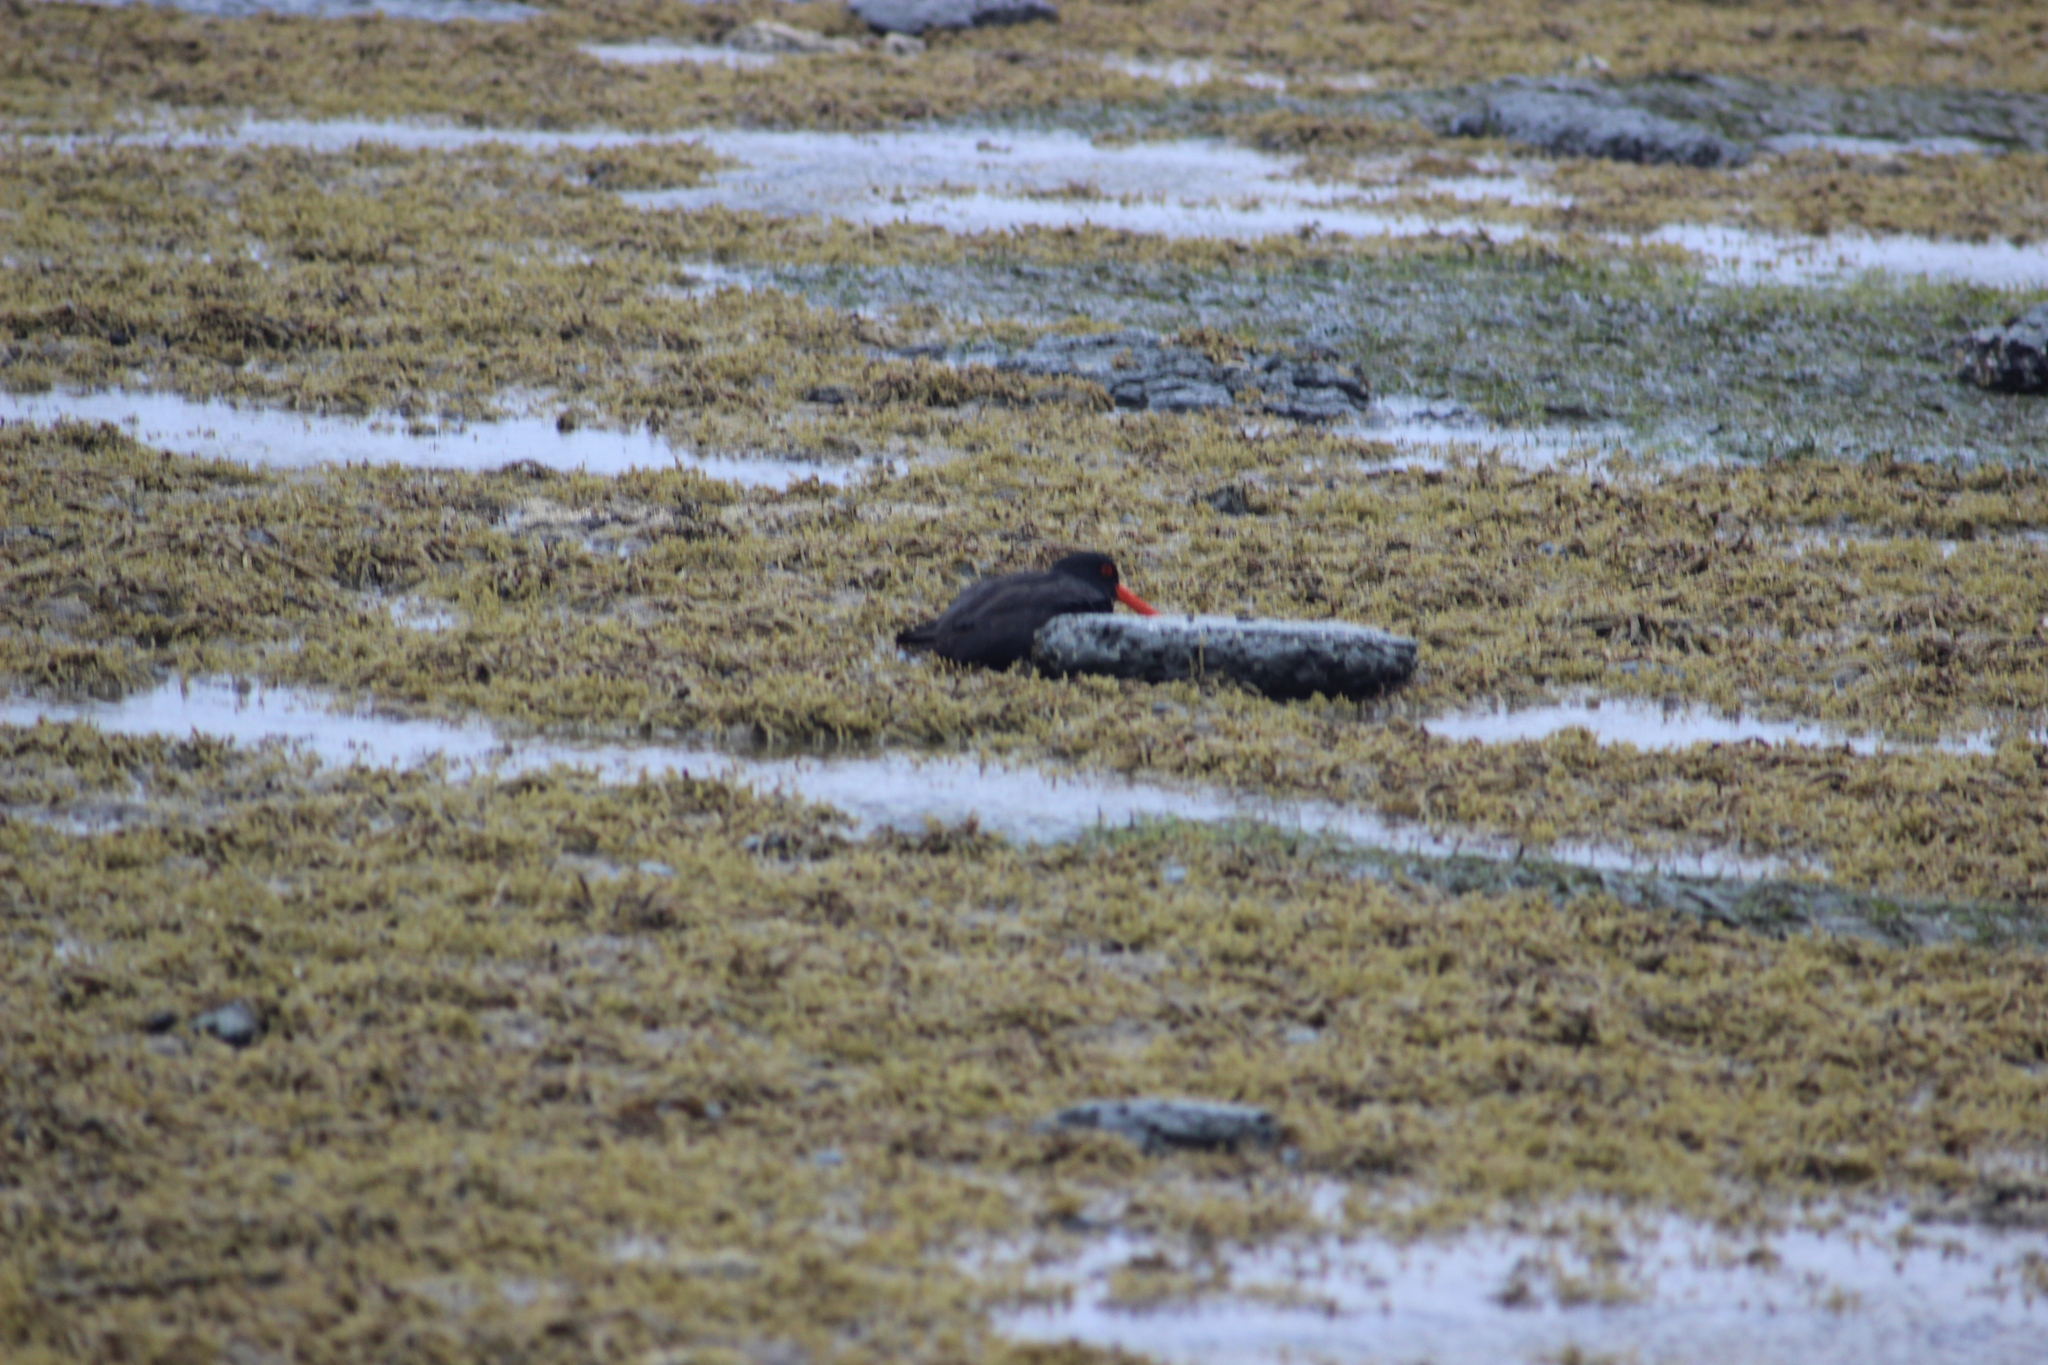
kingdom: Animalia
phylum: Chordata
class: Aves
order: Charadriiformes
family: Haematopodidae
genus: Haematopus
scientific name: Haematopus unicolor
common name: Variable oystercatcher
